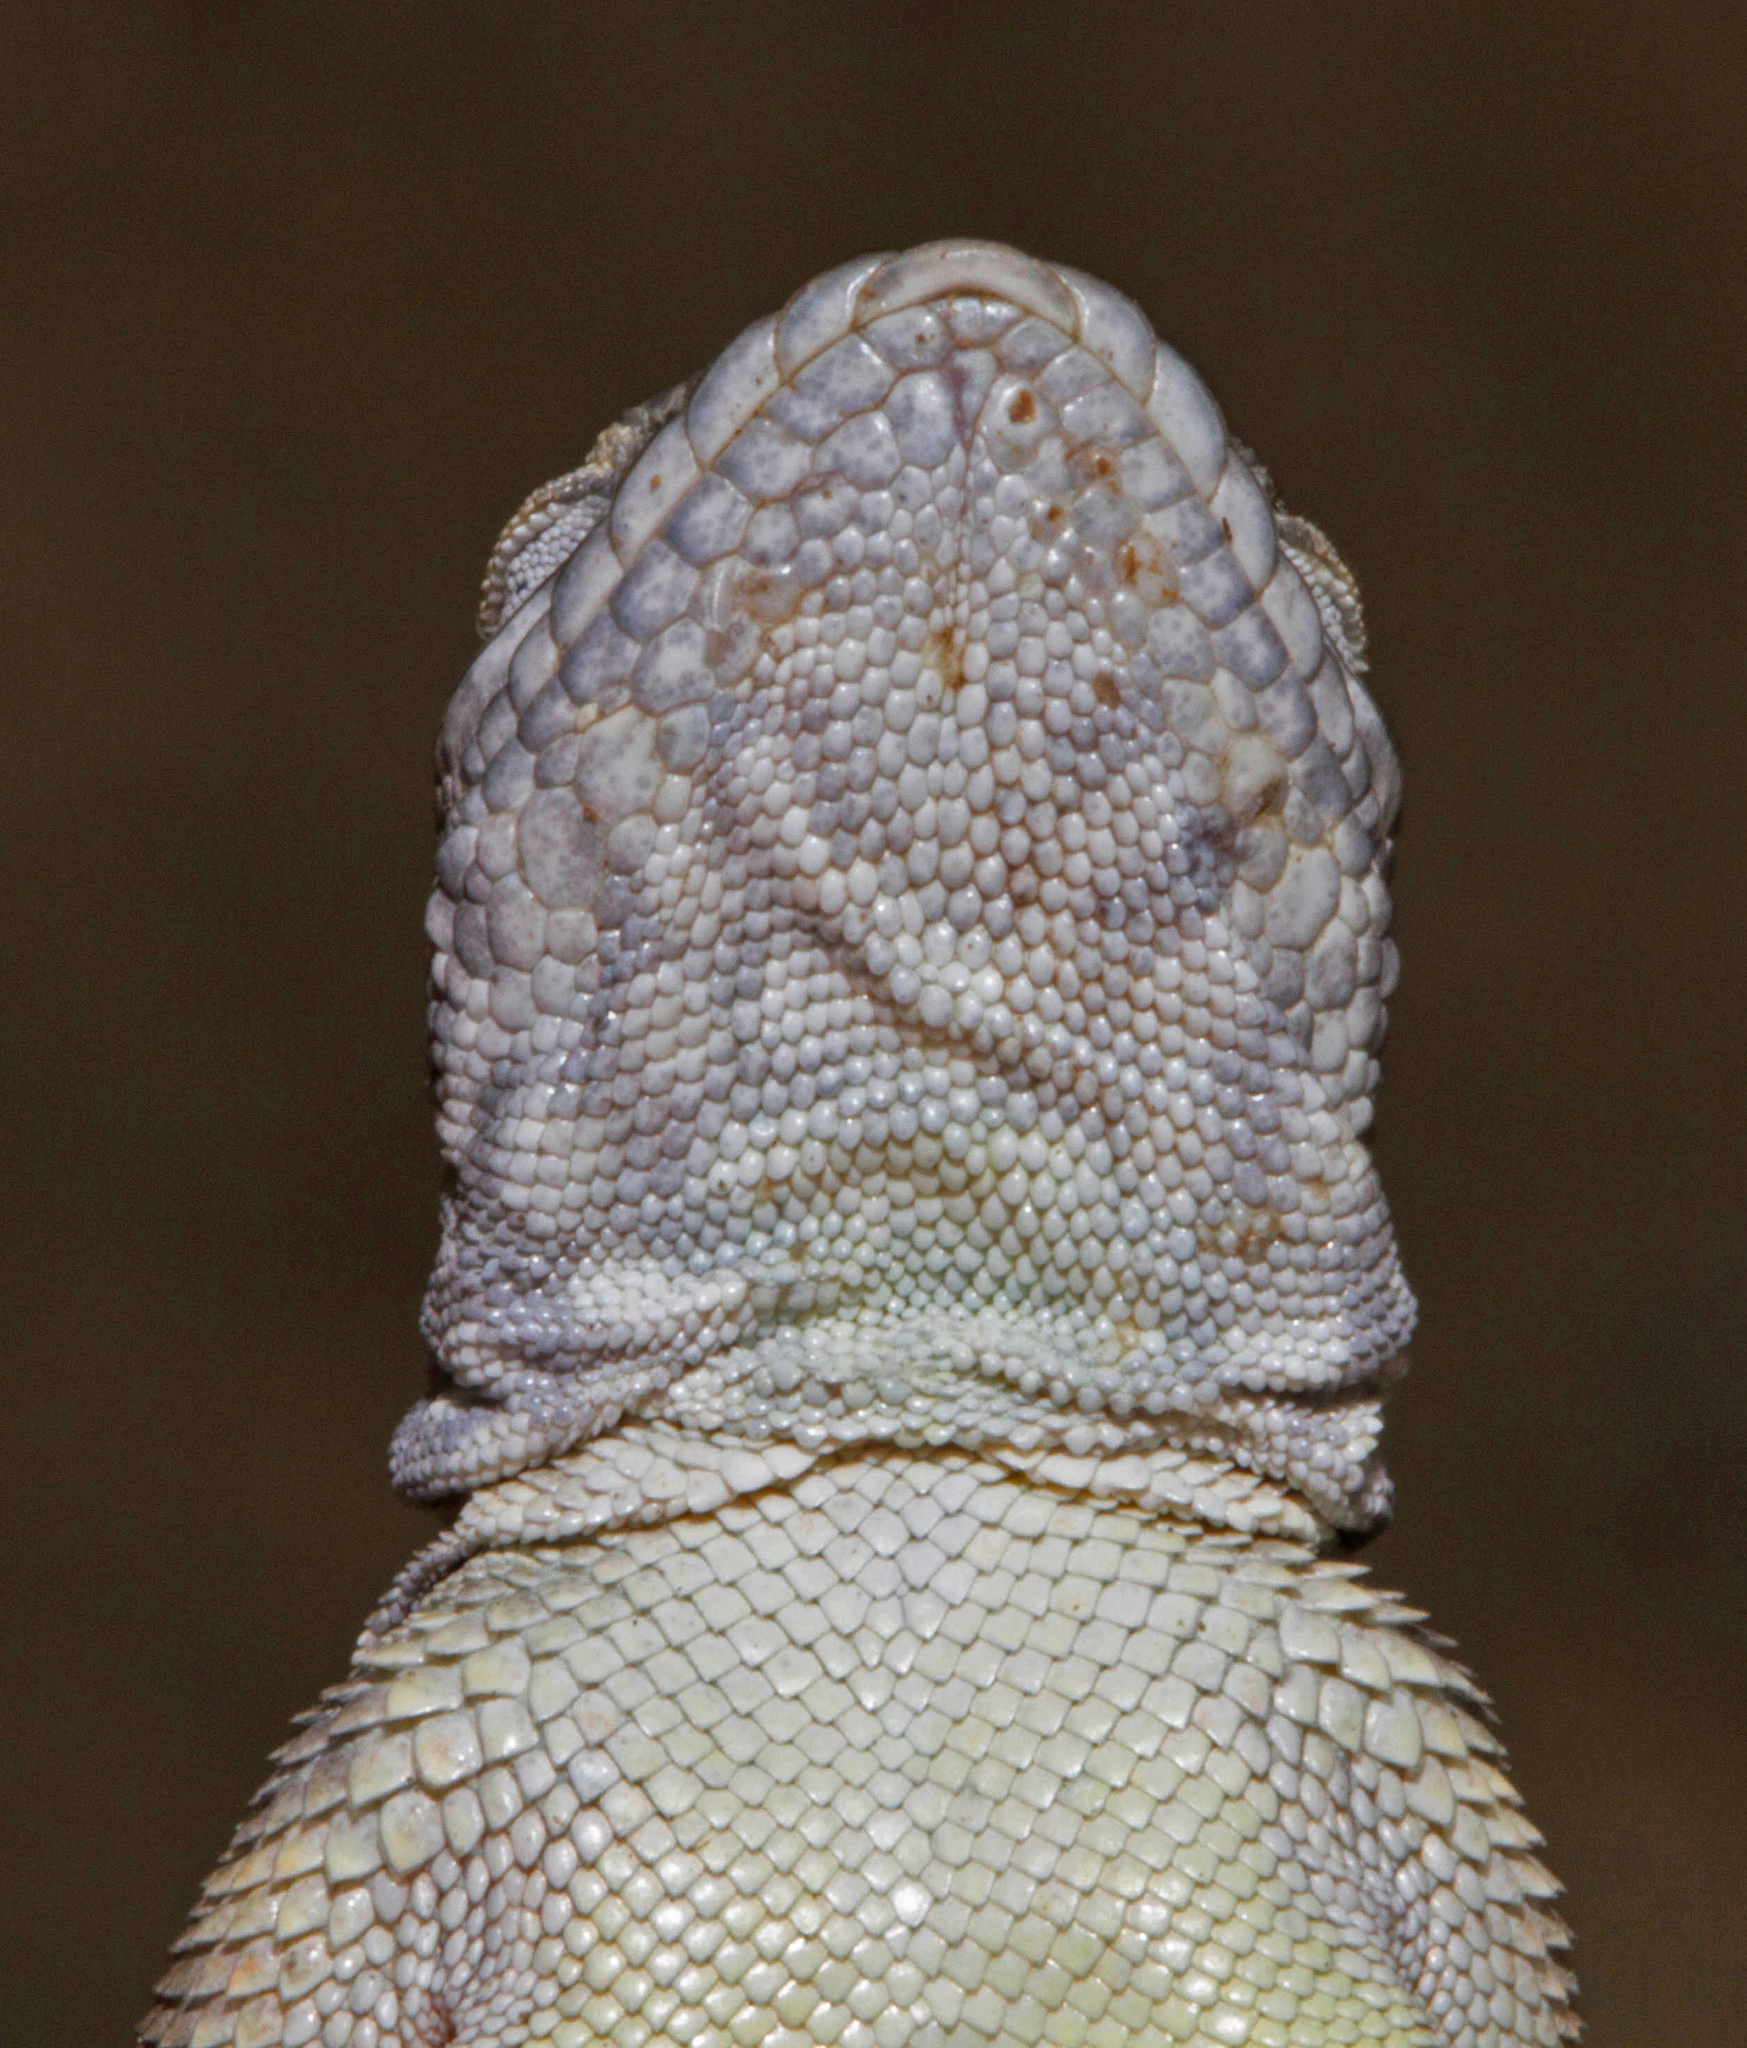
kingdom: Animalia
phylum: Chordata
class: Squamata
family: Phrynosomatidae
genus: Cophosaurus
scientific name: Cophosaurus texanus
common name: Greater earless lizard
